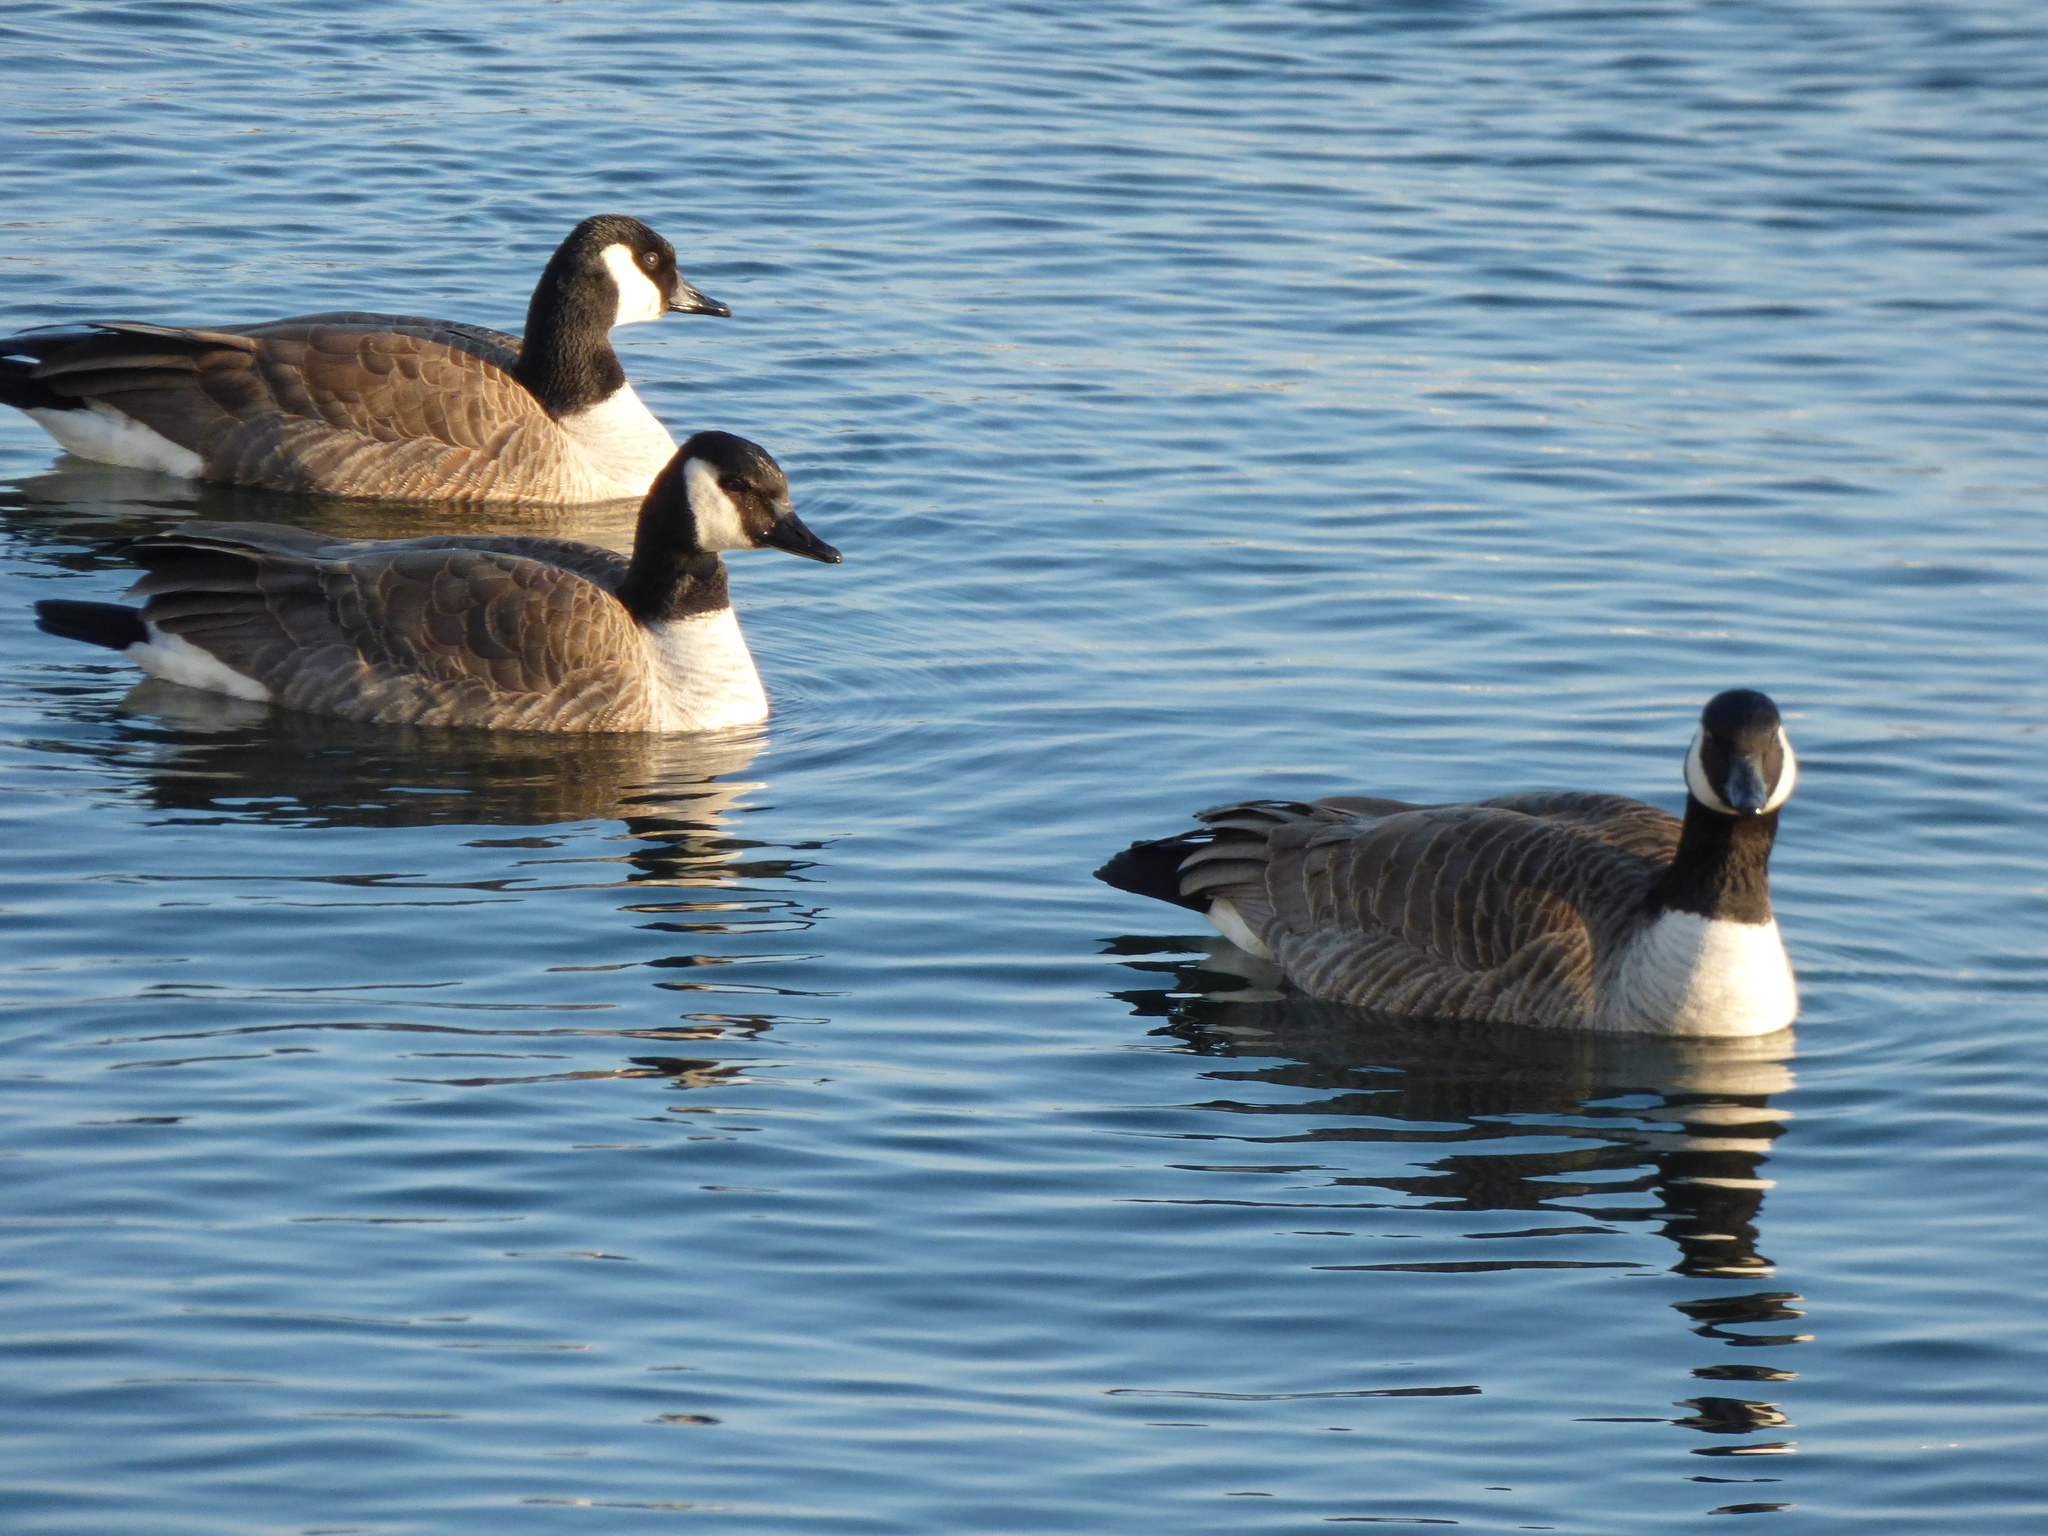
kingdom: Animalia
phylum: Chordata
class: Aves
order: Anseriformes
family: Anatidae
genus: Branta
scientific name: Branta canadensis
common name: Canada goose
